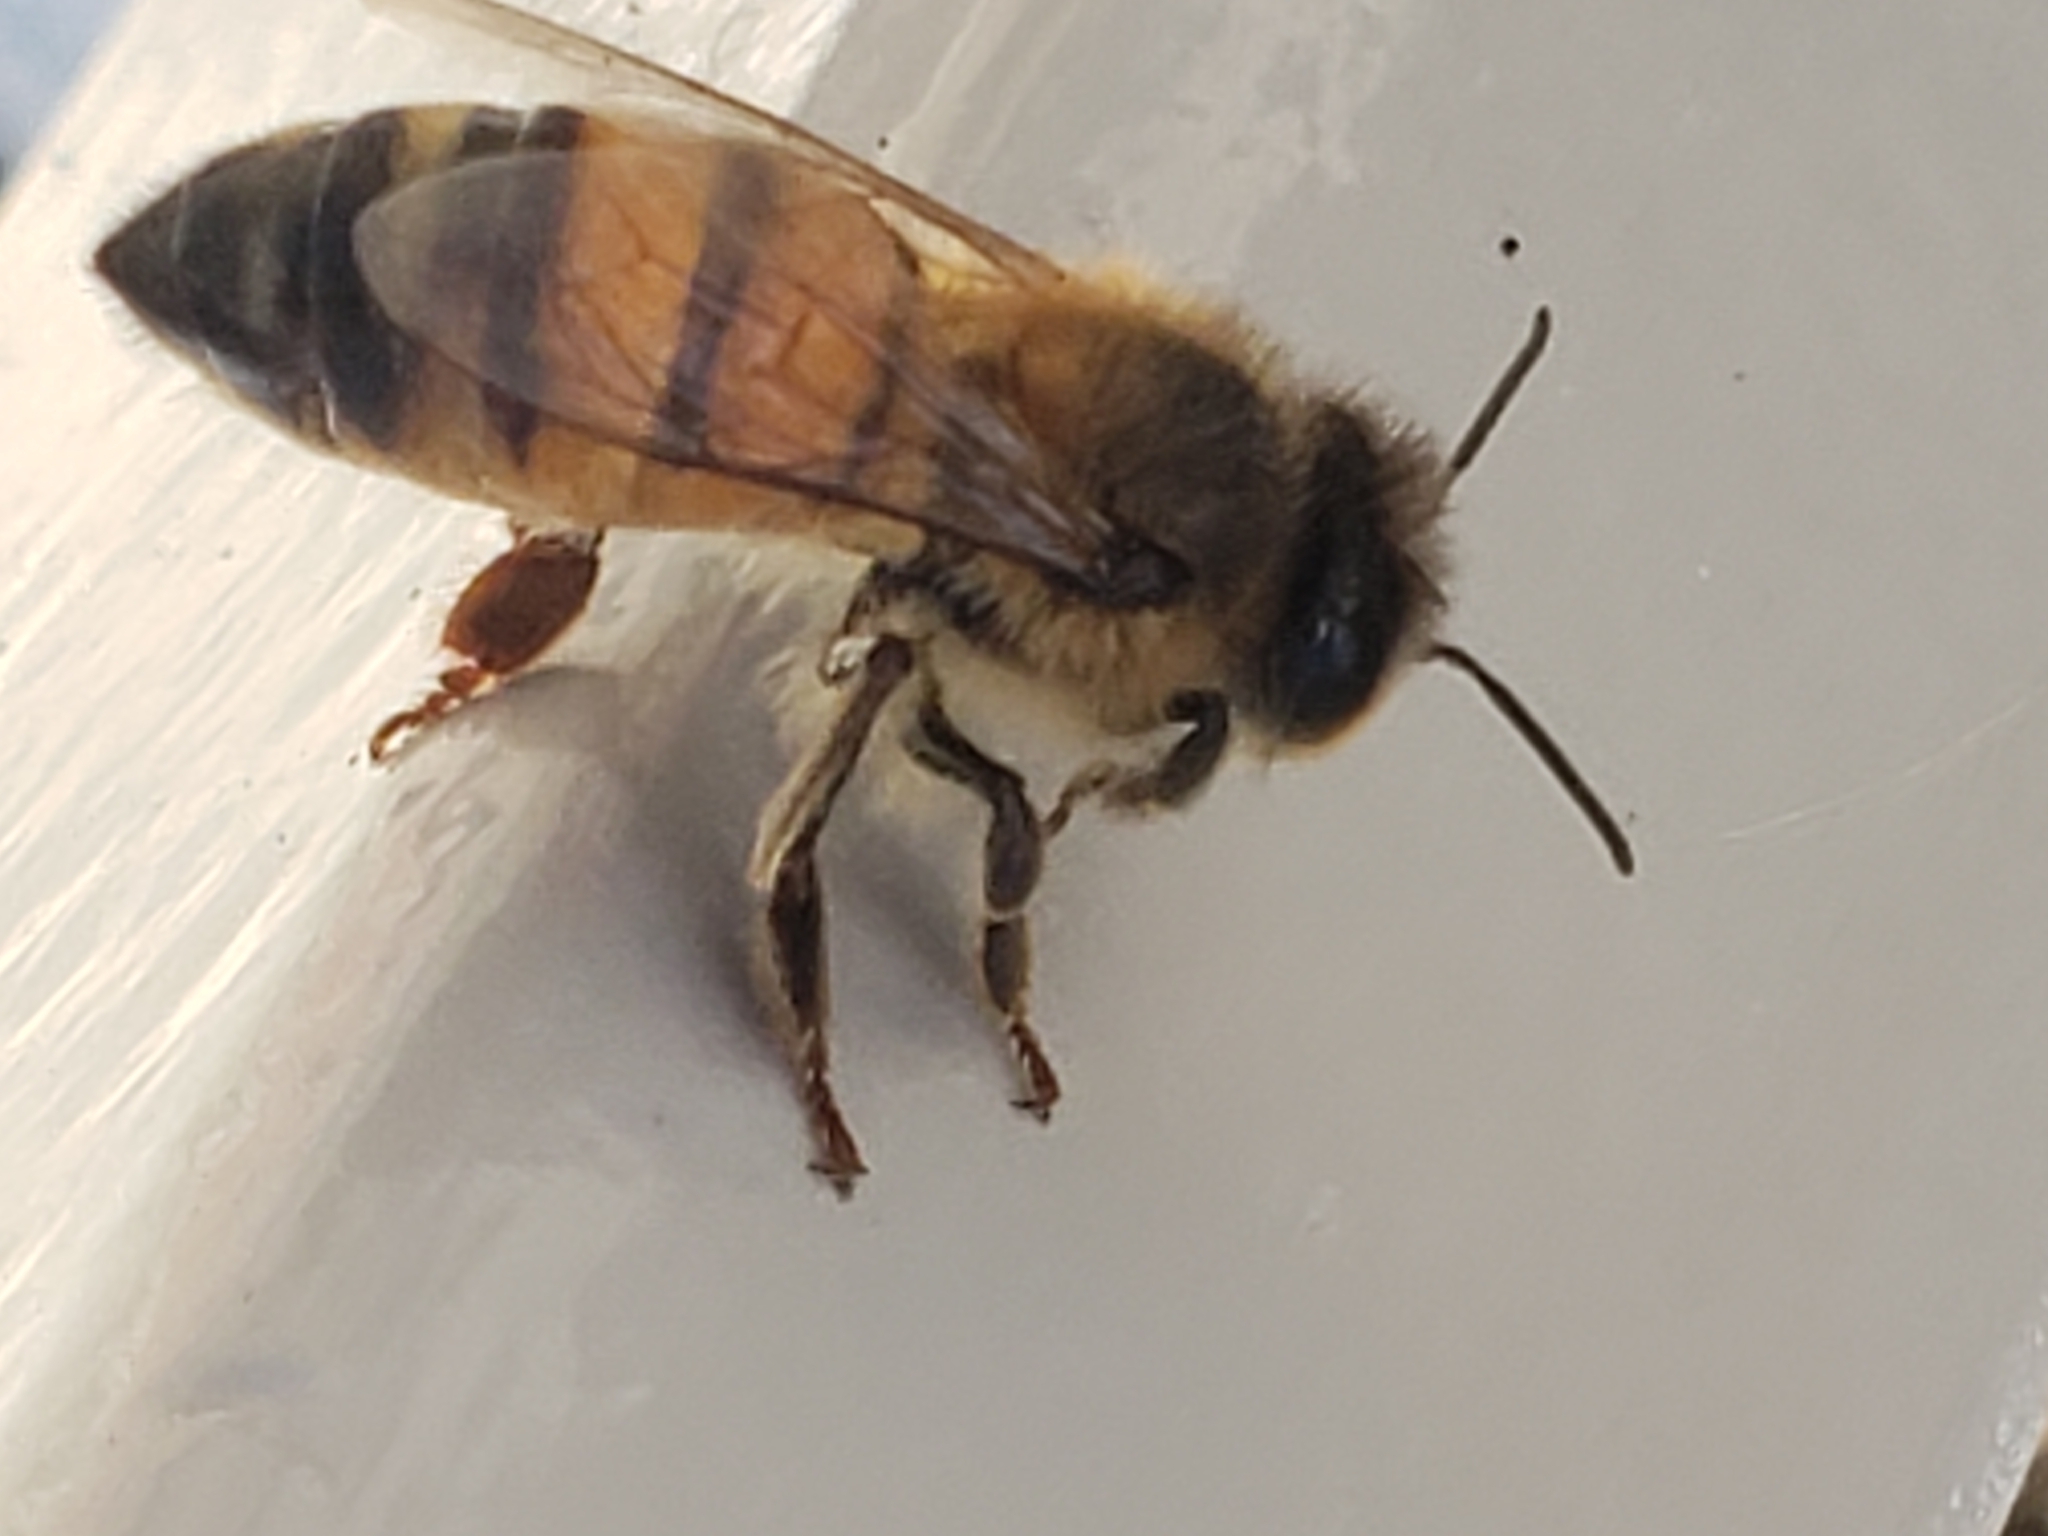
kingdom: Animalia
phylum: Arthropoda
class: Insecta
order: Hymenoptera
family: Apidae
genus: Apis
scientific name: Apis mellifera
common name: Honey bee
